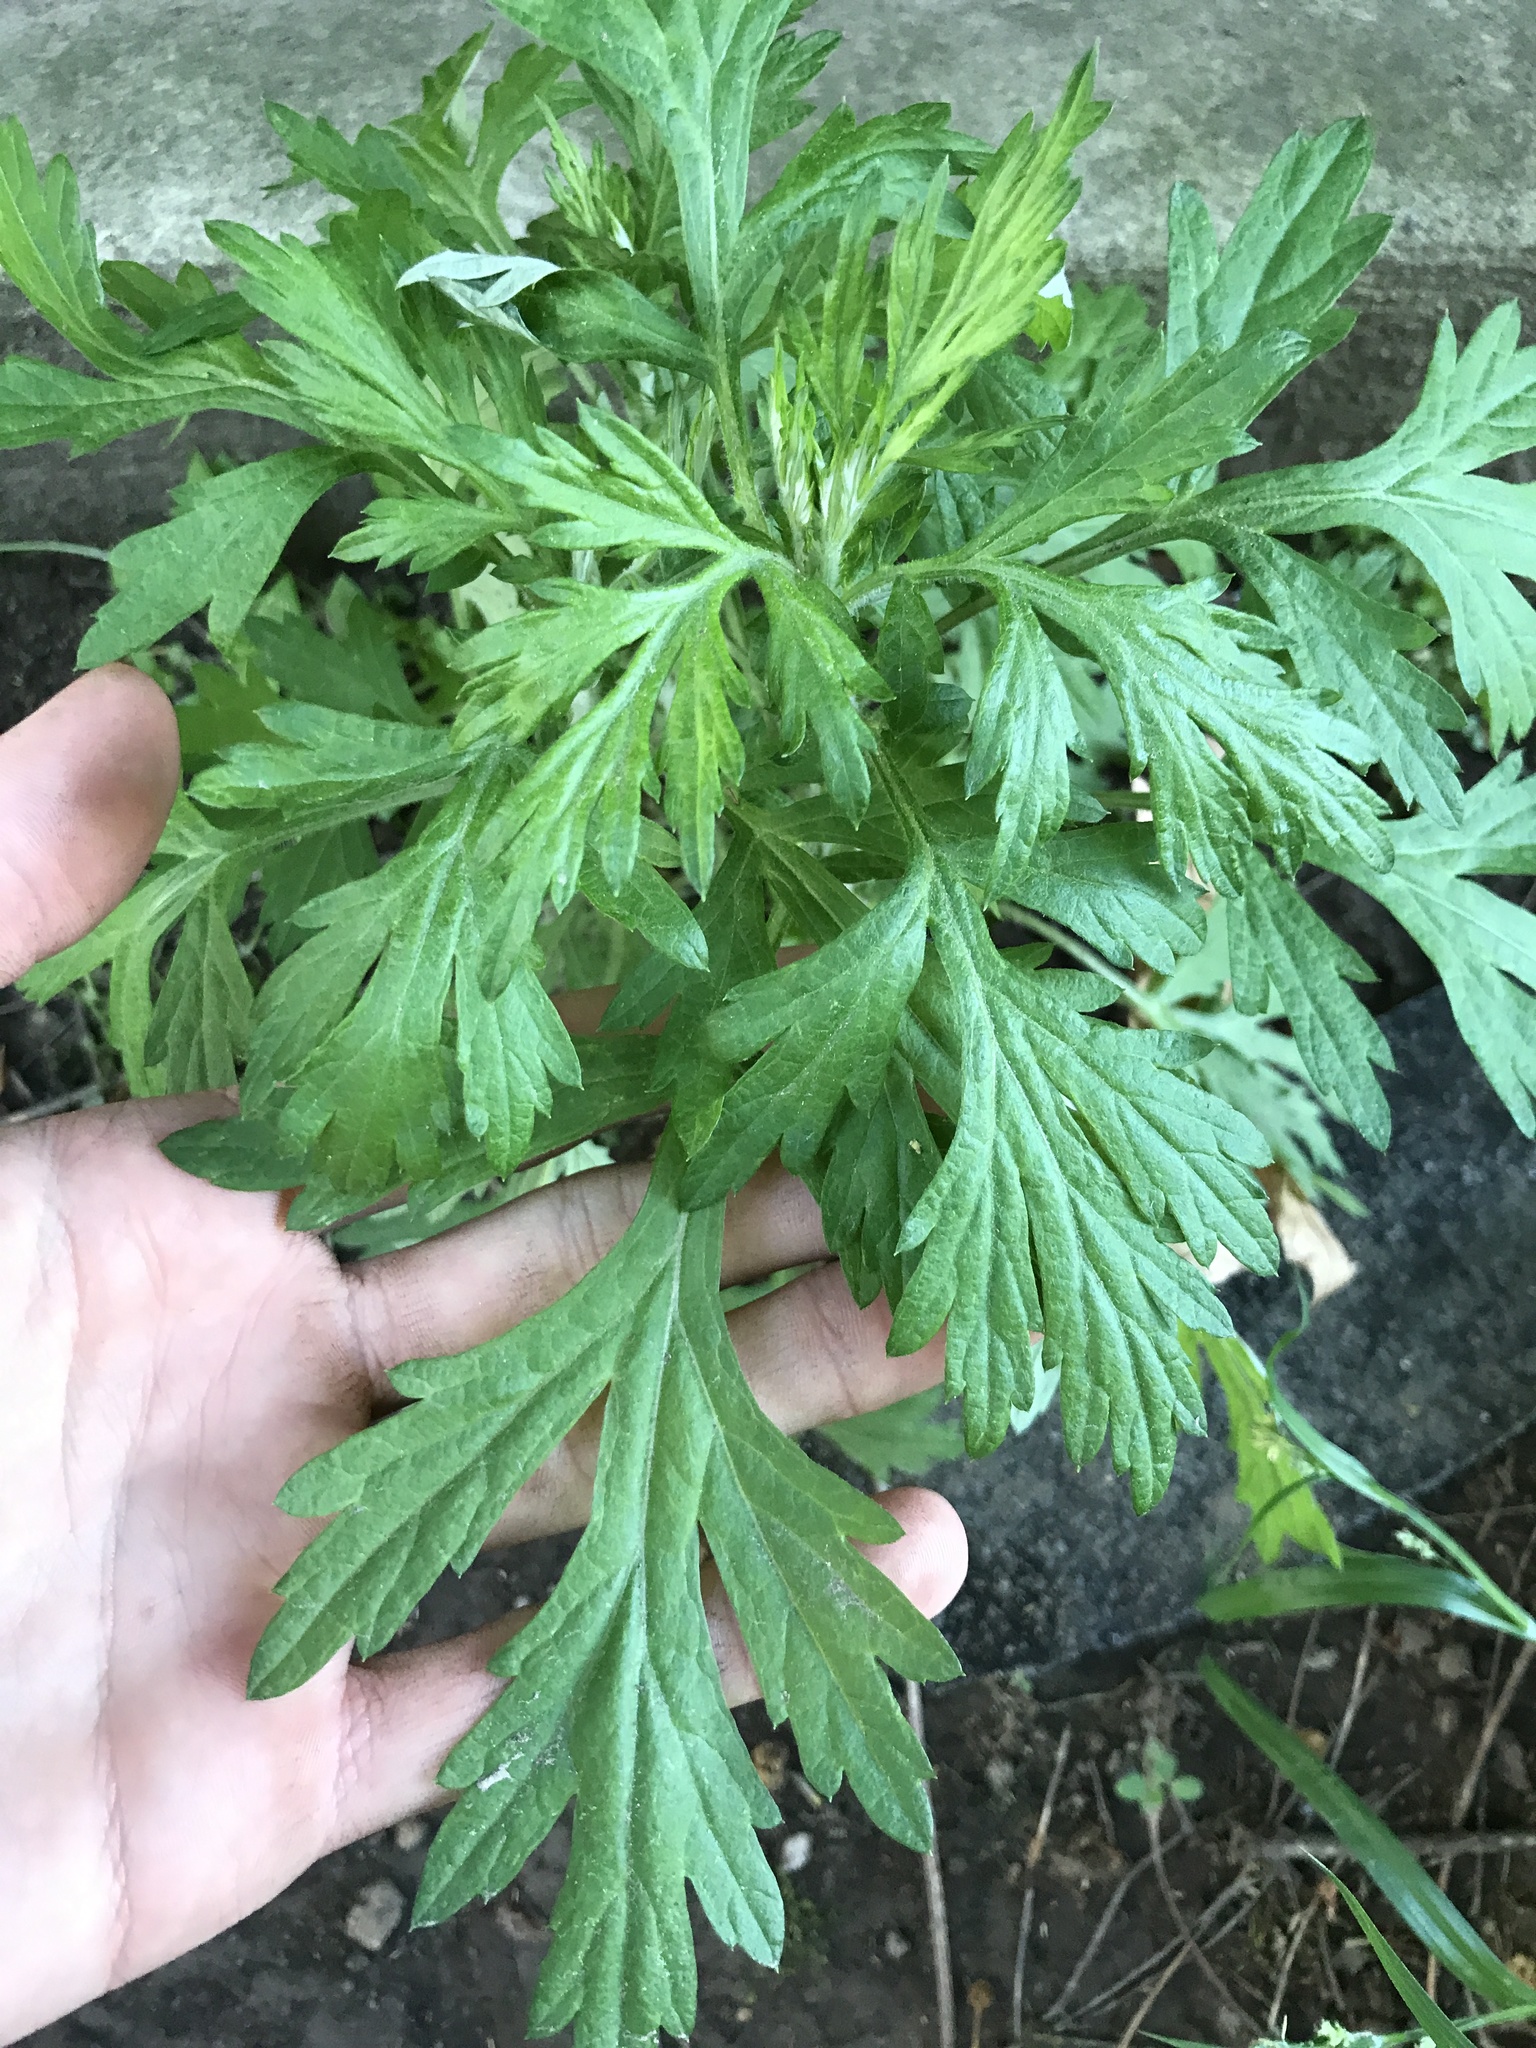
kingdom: Plantae
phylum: Tracheophyta
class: Magnoliopsida
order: Asterales
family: Asteraceae
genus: Artemisia
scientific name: Artemisia vulgaris
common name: Mugwort
